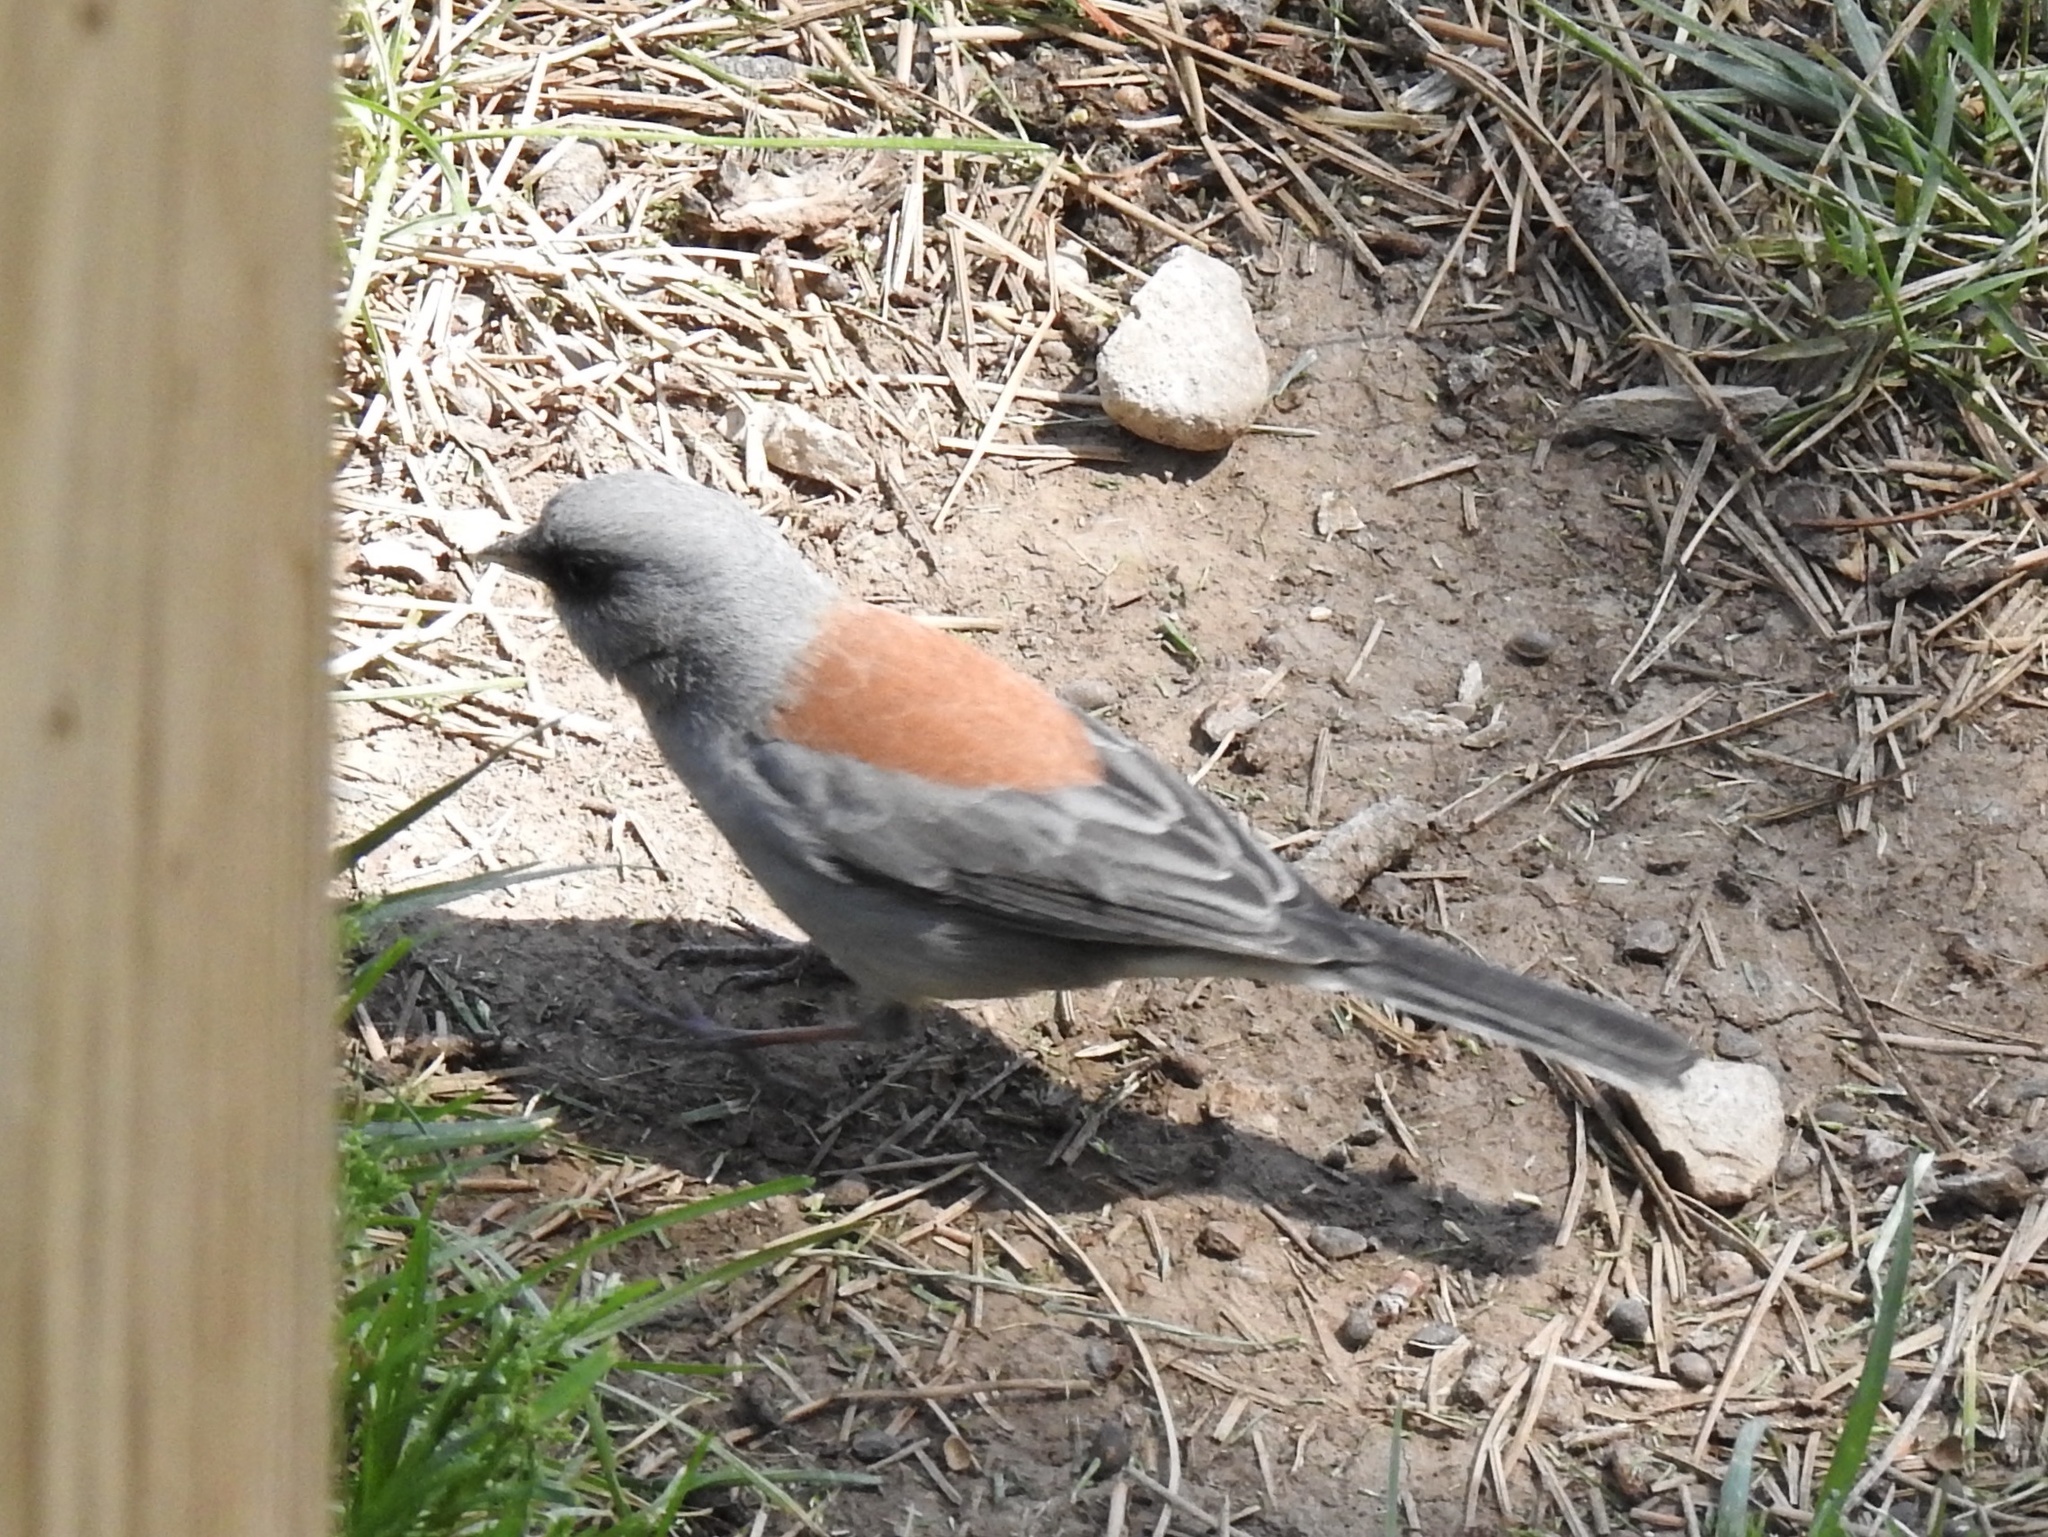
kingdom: Animalia
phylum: Chordata
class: Aves
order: Passeriformes
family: Passerellidae
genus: Junco
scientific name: Junco hyemalis
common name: Dark-eyed junco
